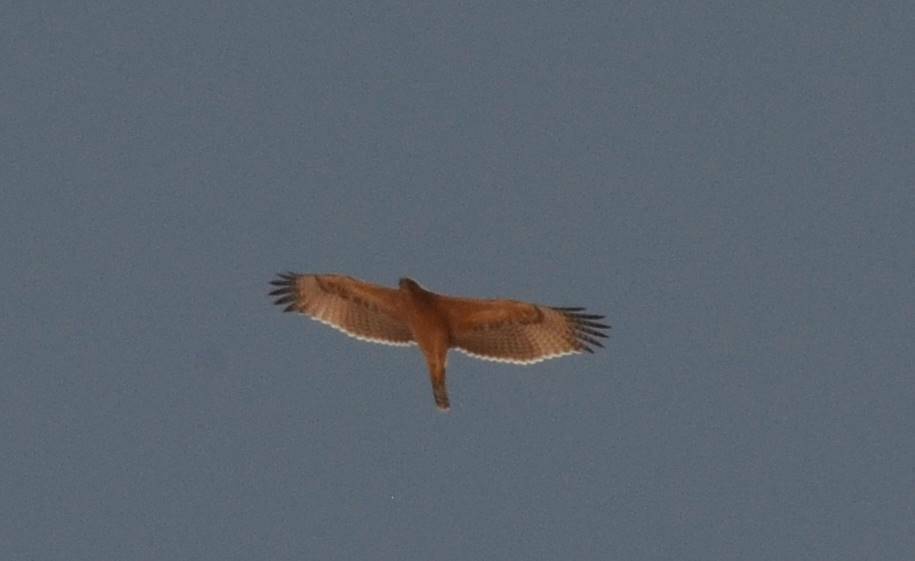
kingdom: Animalia
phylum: Chordata
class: Aves
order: Accipitriformes
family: Accipitridae
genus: Aquila
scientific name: Aquila fasciata
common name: Bonelli's eagle
